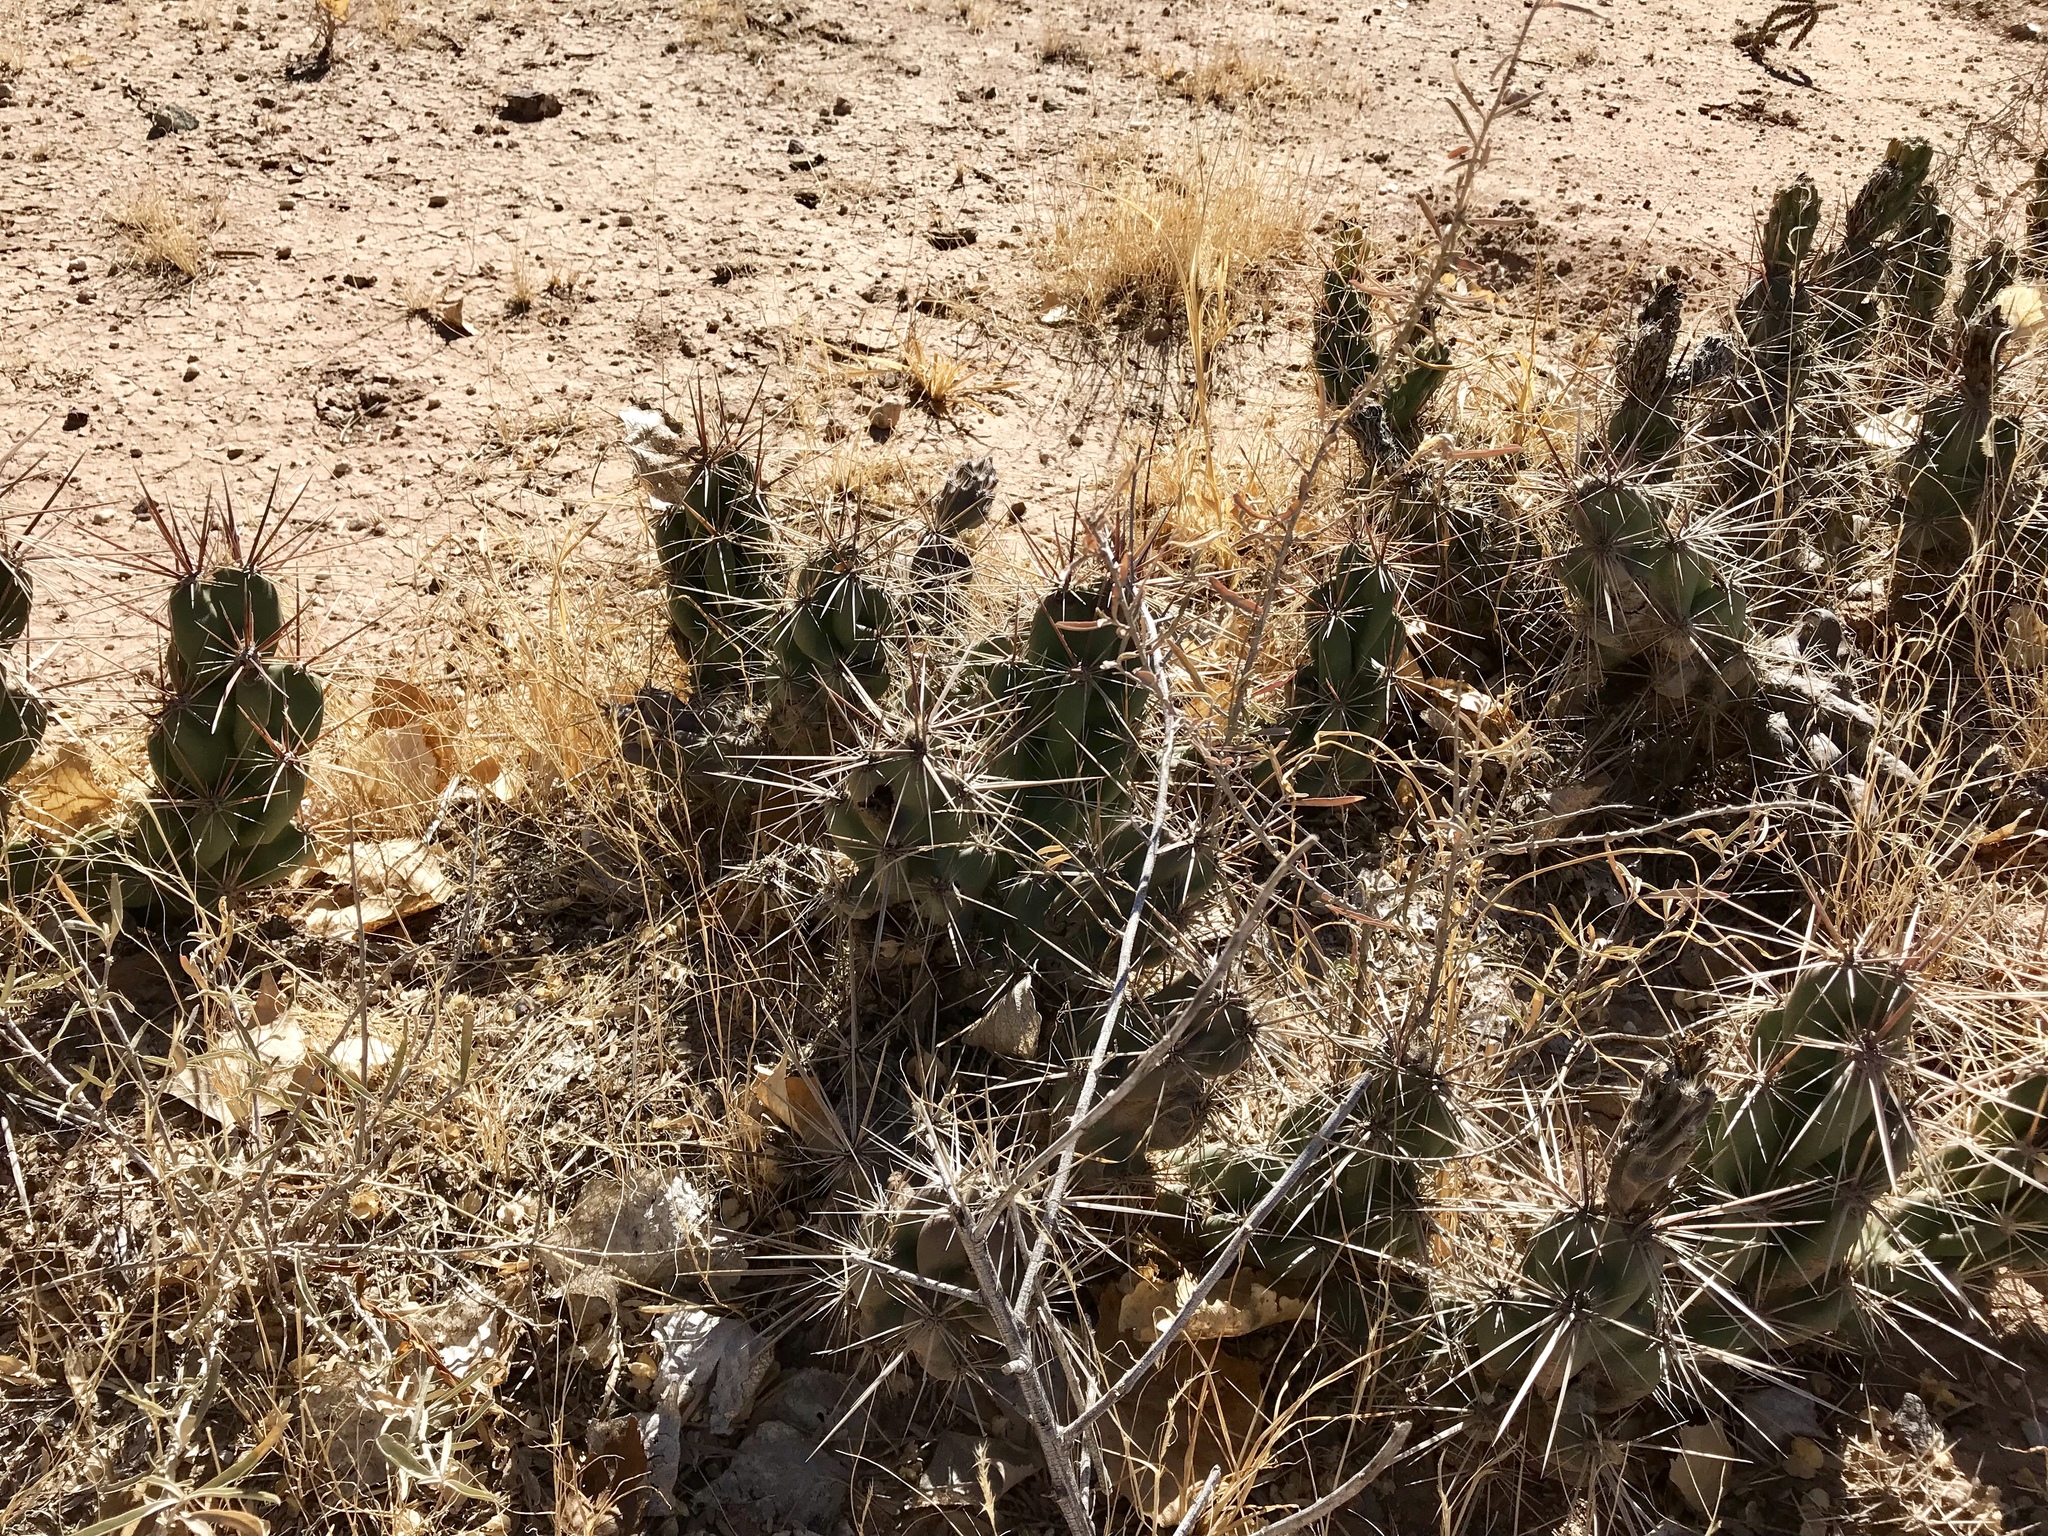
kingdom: Plantae
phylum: Tracheophyta
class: Magnoliopsida
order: Caryophyllales
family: Cactaceae
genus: Grusonia
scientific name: Grusonia emoryi
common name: Stanly's club cholla
